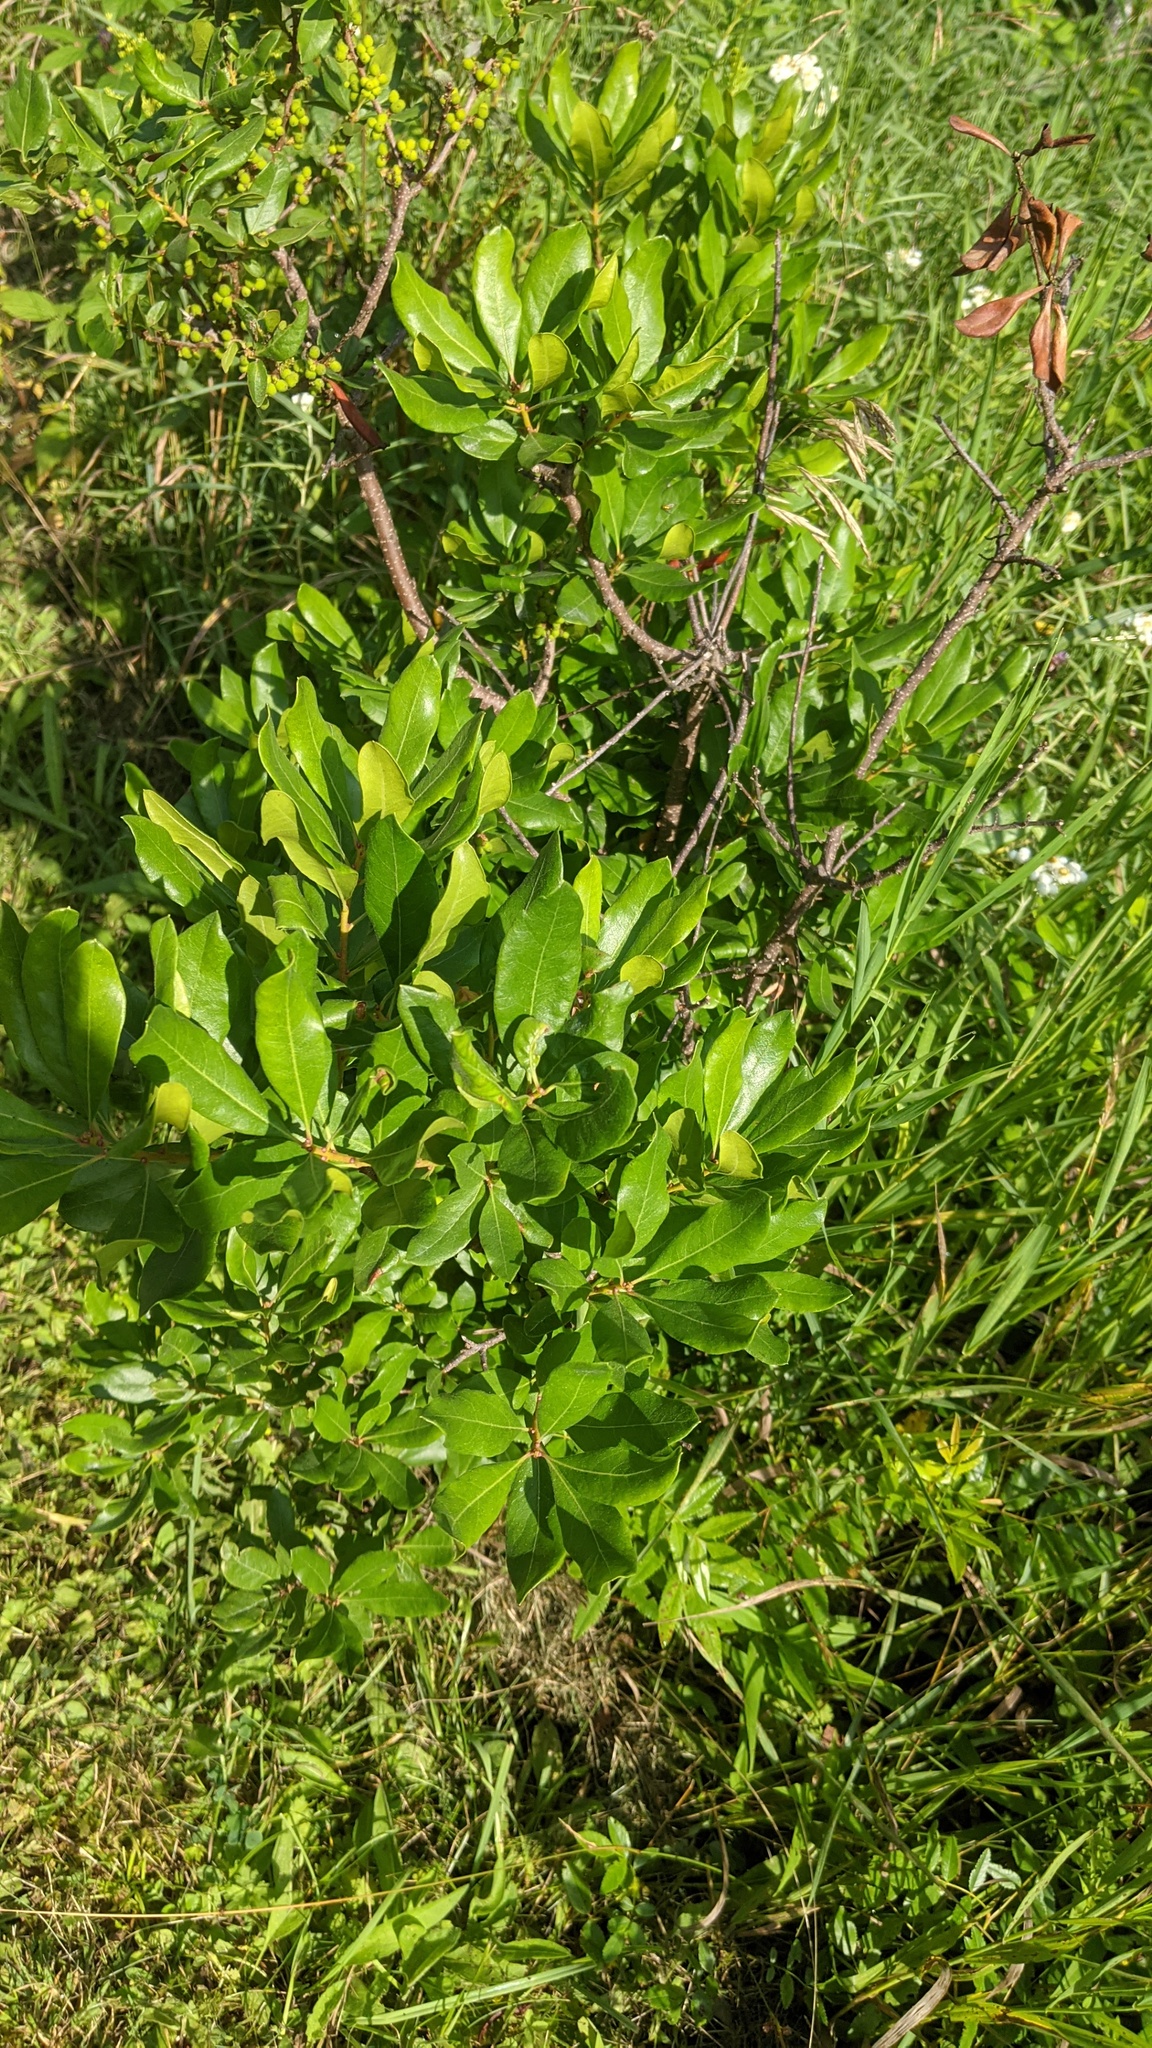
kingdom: Plantae
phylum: Tracheophyta
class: Magnoliopsida
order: Fagales
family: Myricaceae
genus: Morella
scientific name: Morella pensylvanica
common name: Northern bayberry
